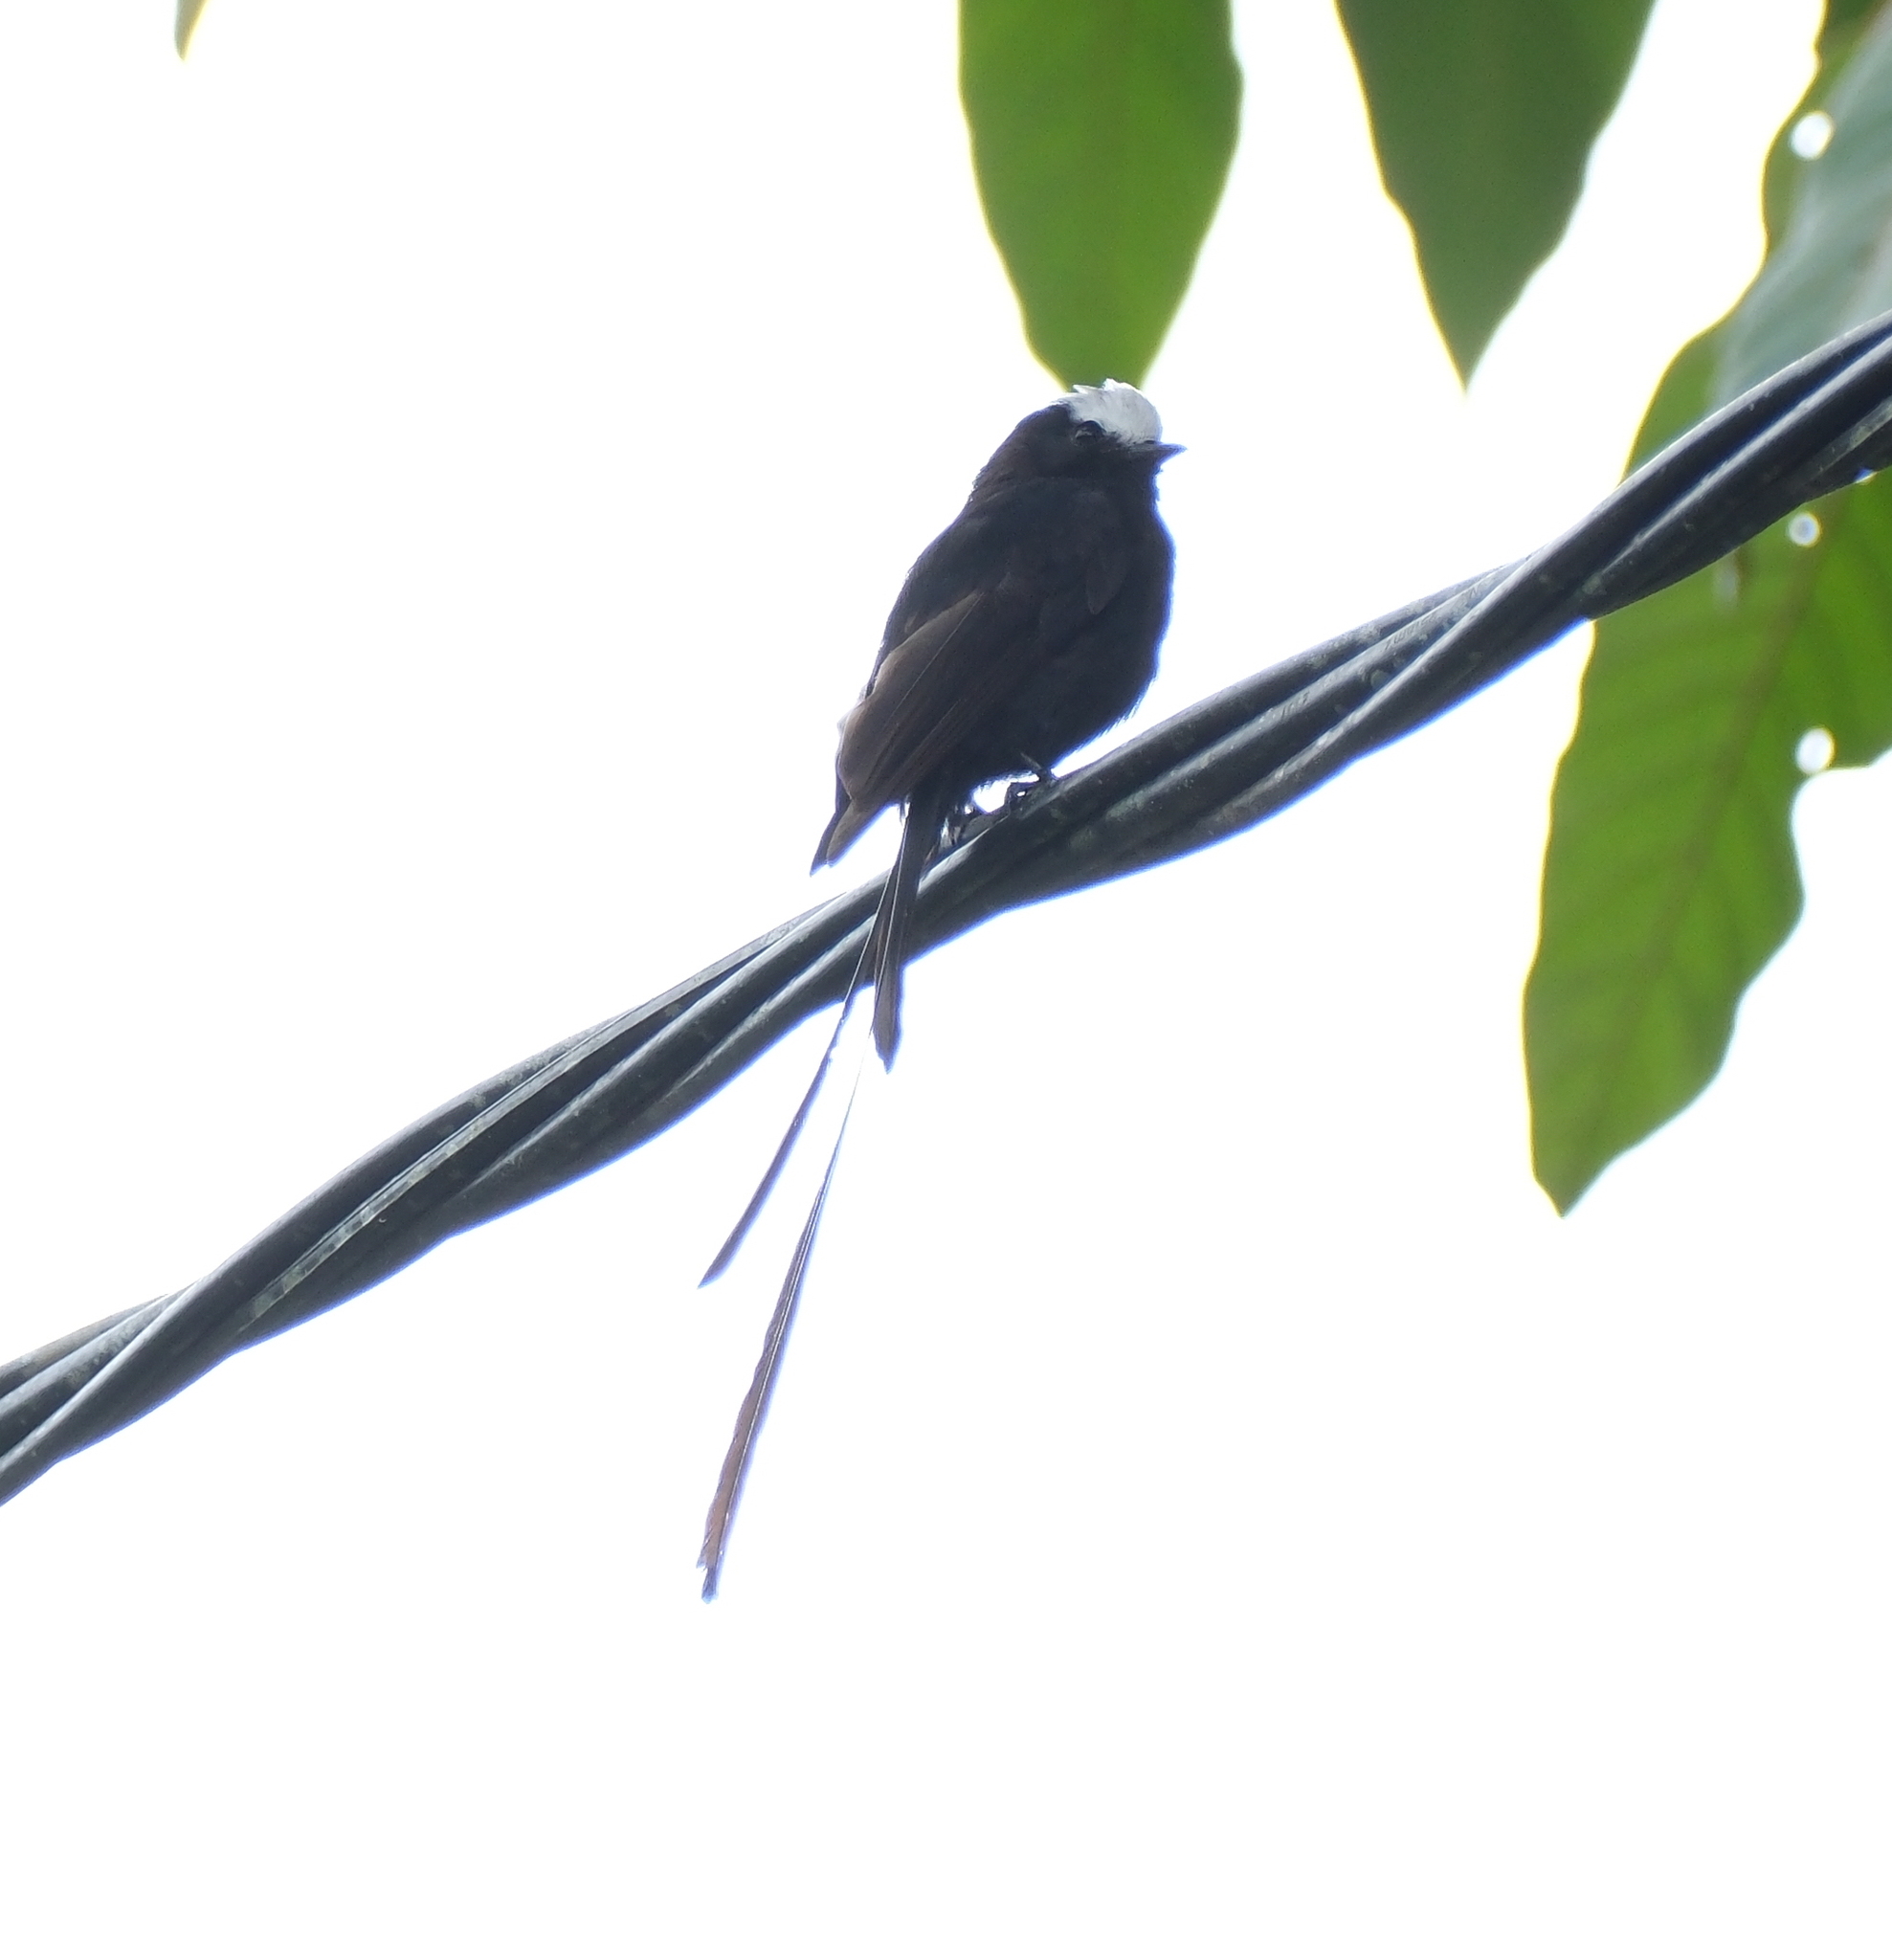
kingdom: Animalia
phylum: Chordata
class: Aves
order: Passeriformes
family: Tyrannidae
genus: Colonia
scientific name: Colonia colonus
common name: Long-tailed tyrant
